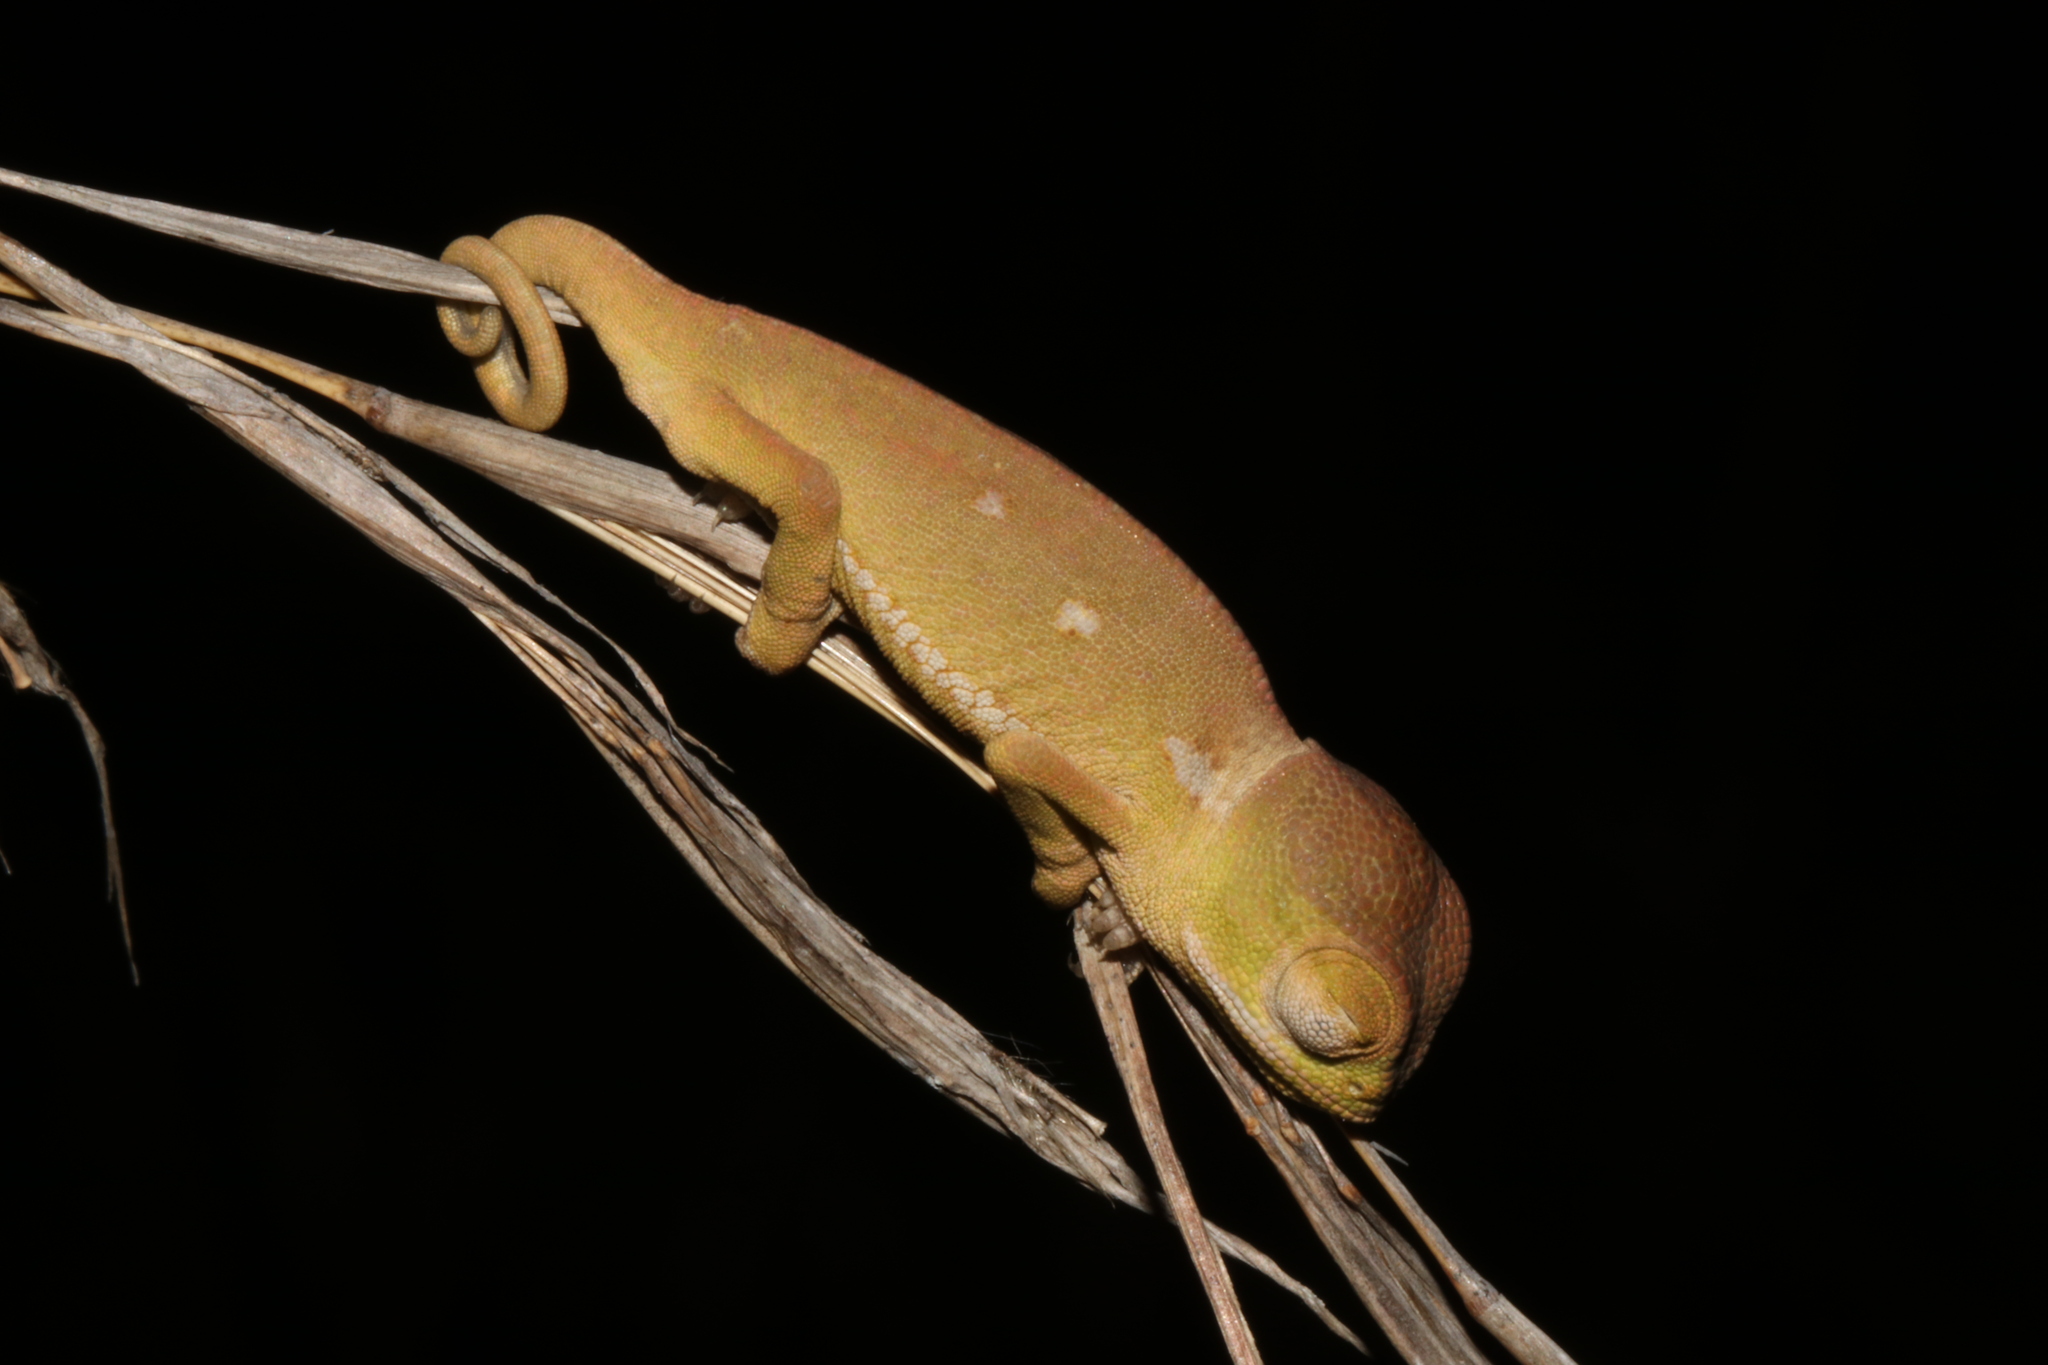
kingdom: Animalia
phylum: Chordata
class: Squamata
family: Chamaeleonidae
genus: Chamaeleo
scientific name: Chamaeleo dilepis
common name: Flapneck chameleon
